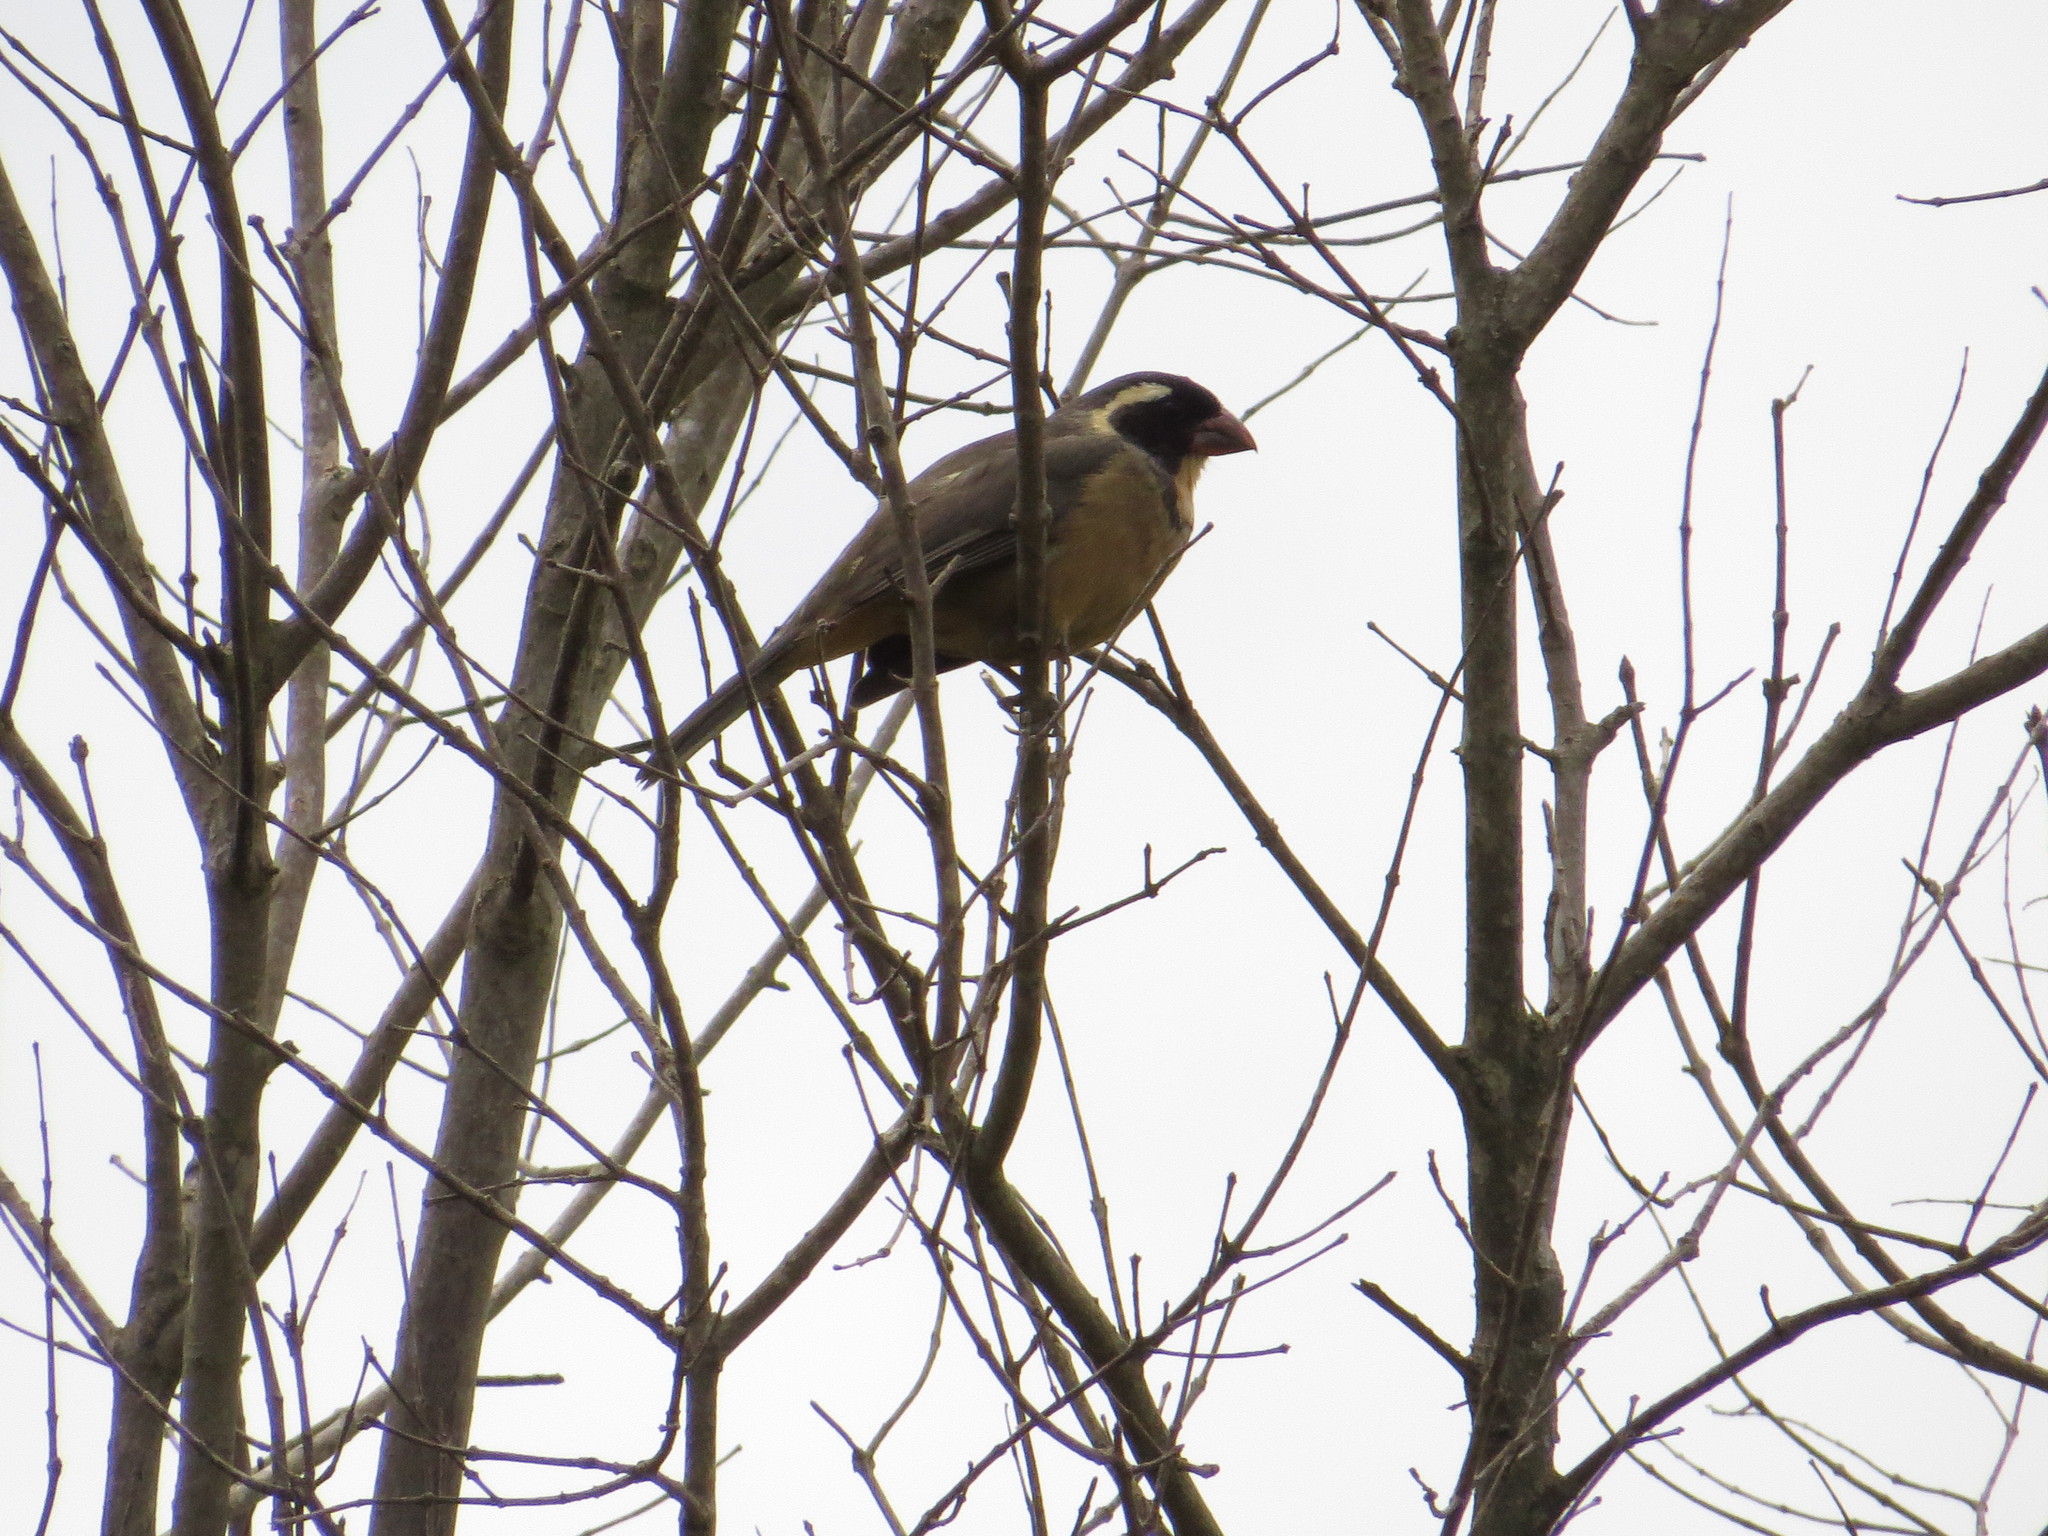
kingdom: Animalia
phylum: Chordata
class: Aves
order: Passeriformes
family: Thraupidae
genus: Saltator
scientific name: Saltator aurantiirostris
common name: Golden-billed saltator
